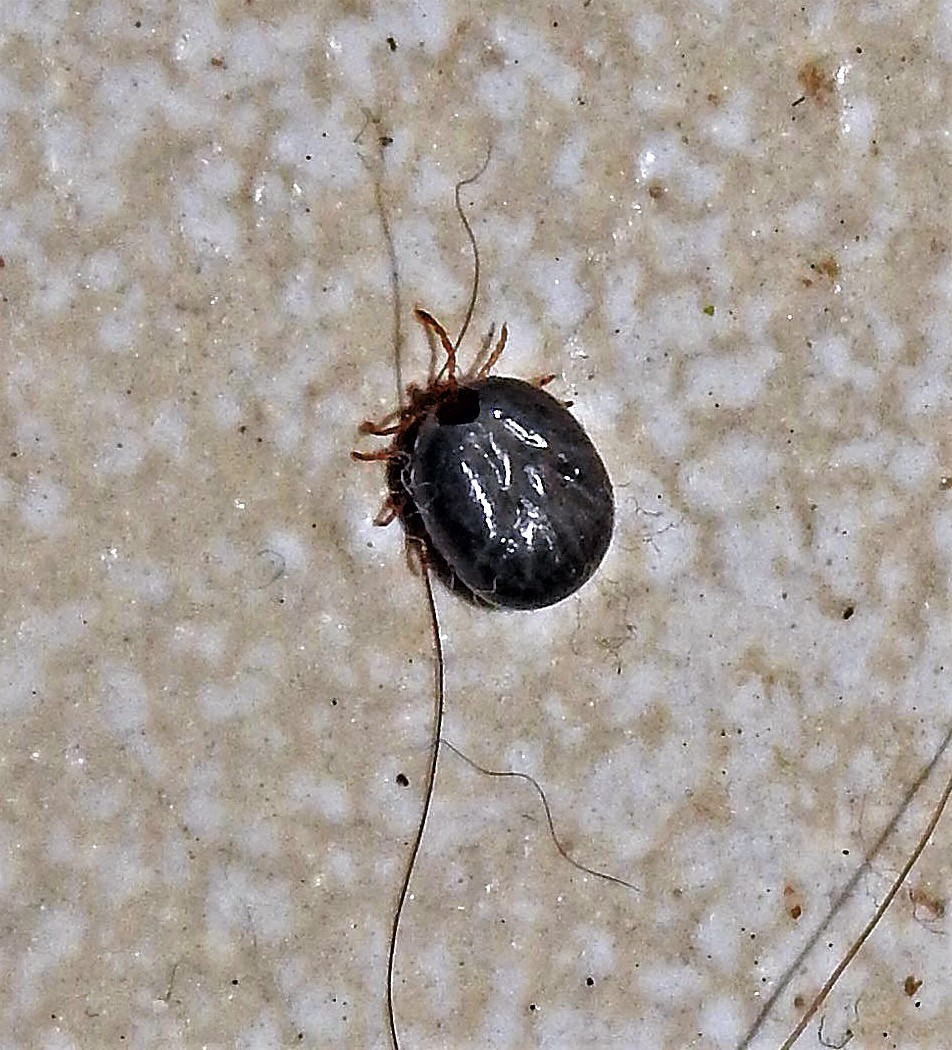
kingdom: Animalia
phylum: Arthropoda
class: Arachnida
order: Ixodida
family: Ixodidae
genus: Rhipicephalus
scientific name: Rhipicephalus sanguineus
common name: Brown dog tick
